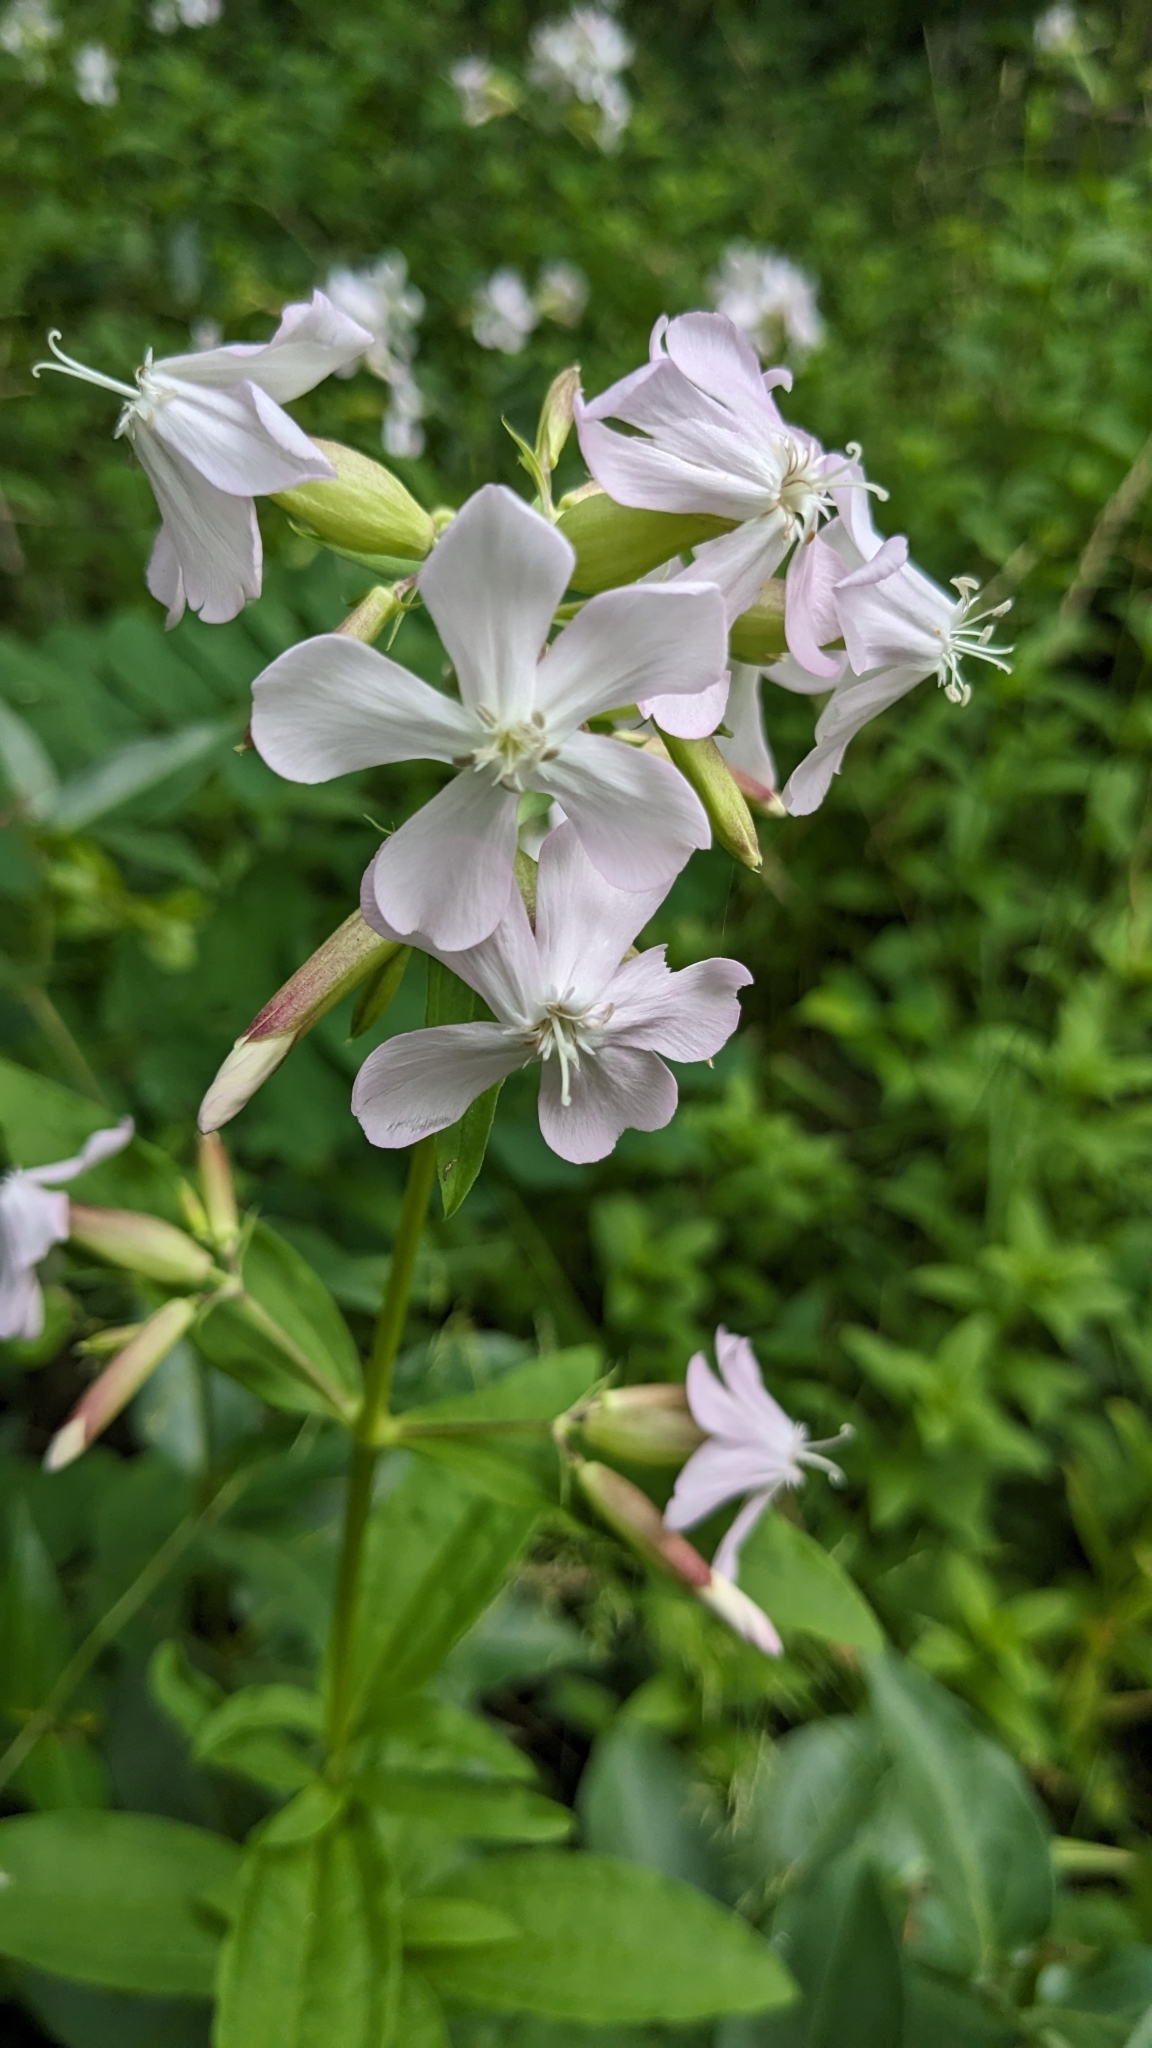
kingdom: Plantae
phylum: Tracheophyta
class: Magnoliopsida
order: Caryophyllales
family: Caryophyllaceae
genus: Saponaria
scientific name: Saponaria officinalis
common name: Soapwort
